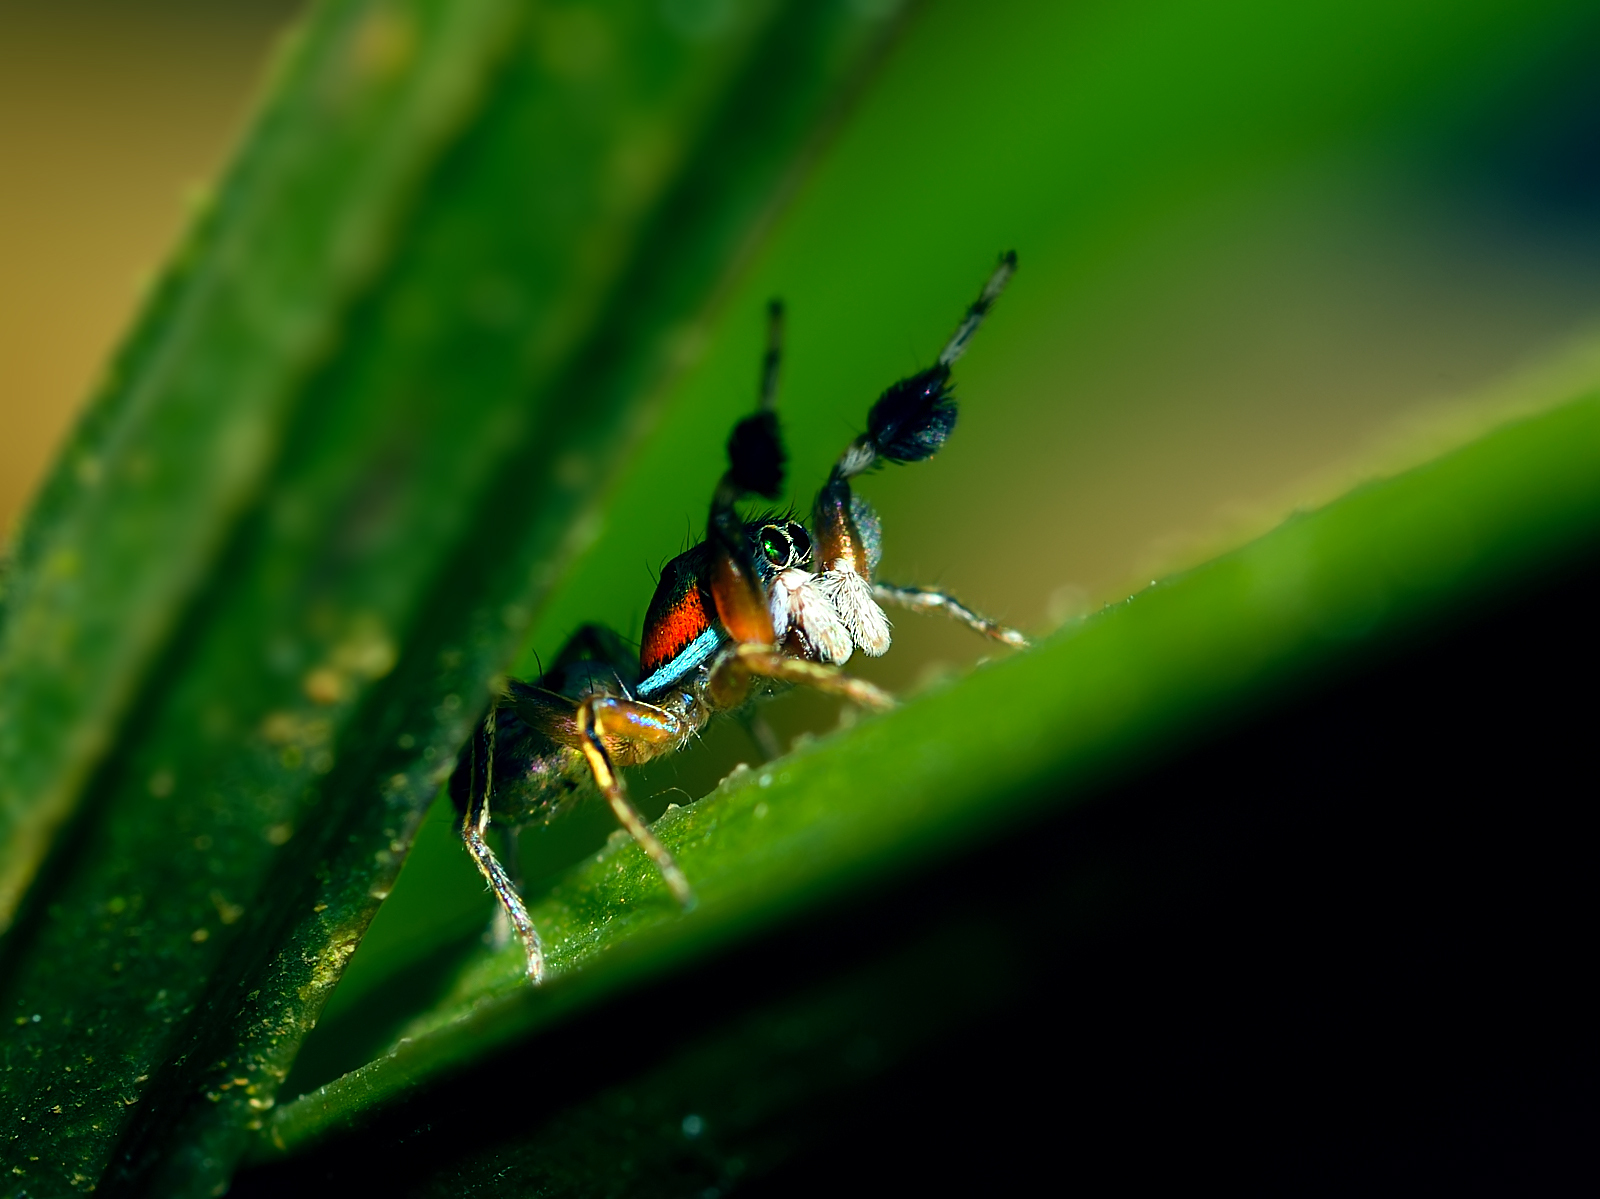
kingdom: Animalia
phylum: Arthropoda
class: Arachnida
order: Araneae
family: Salticidae
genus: Siler
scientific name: Siler semiglaucus
